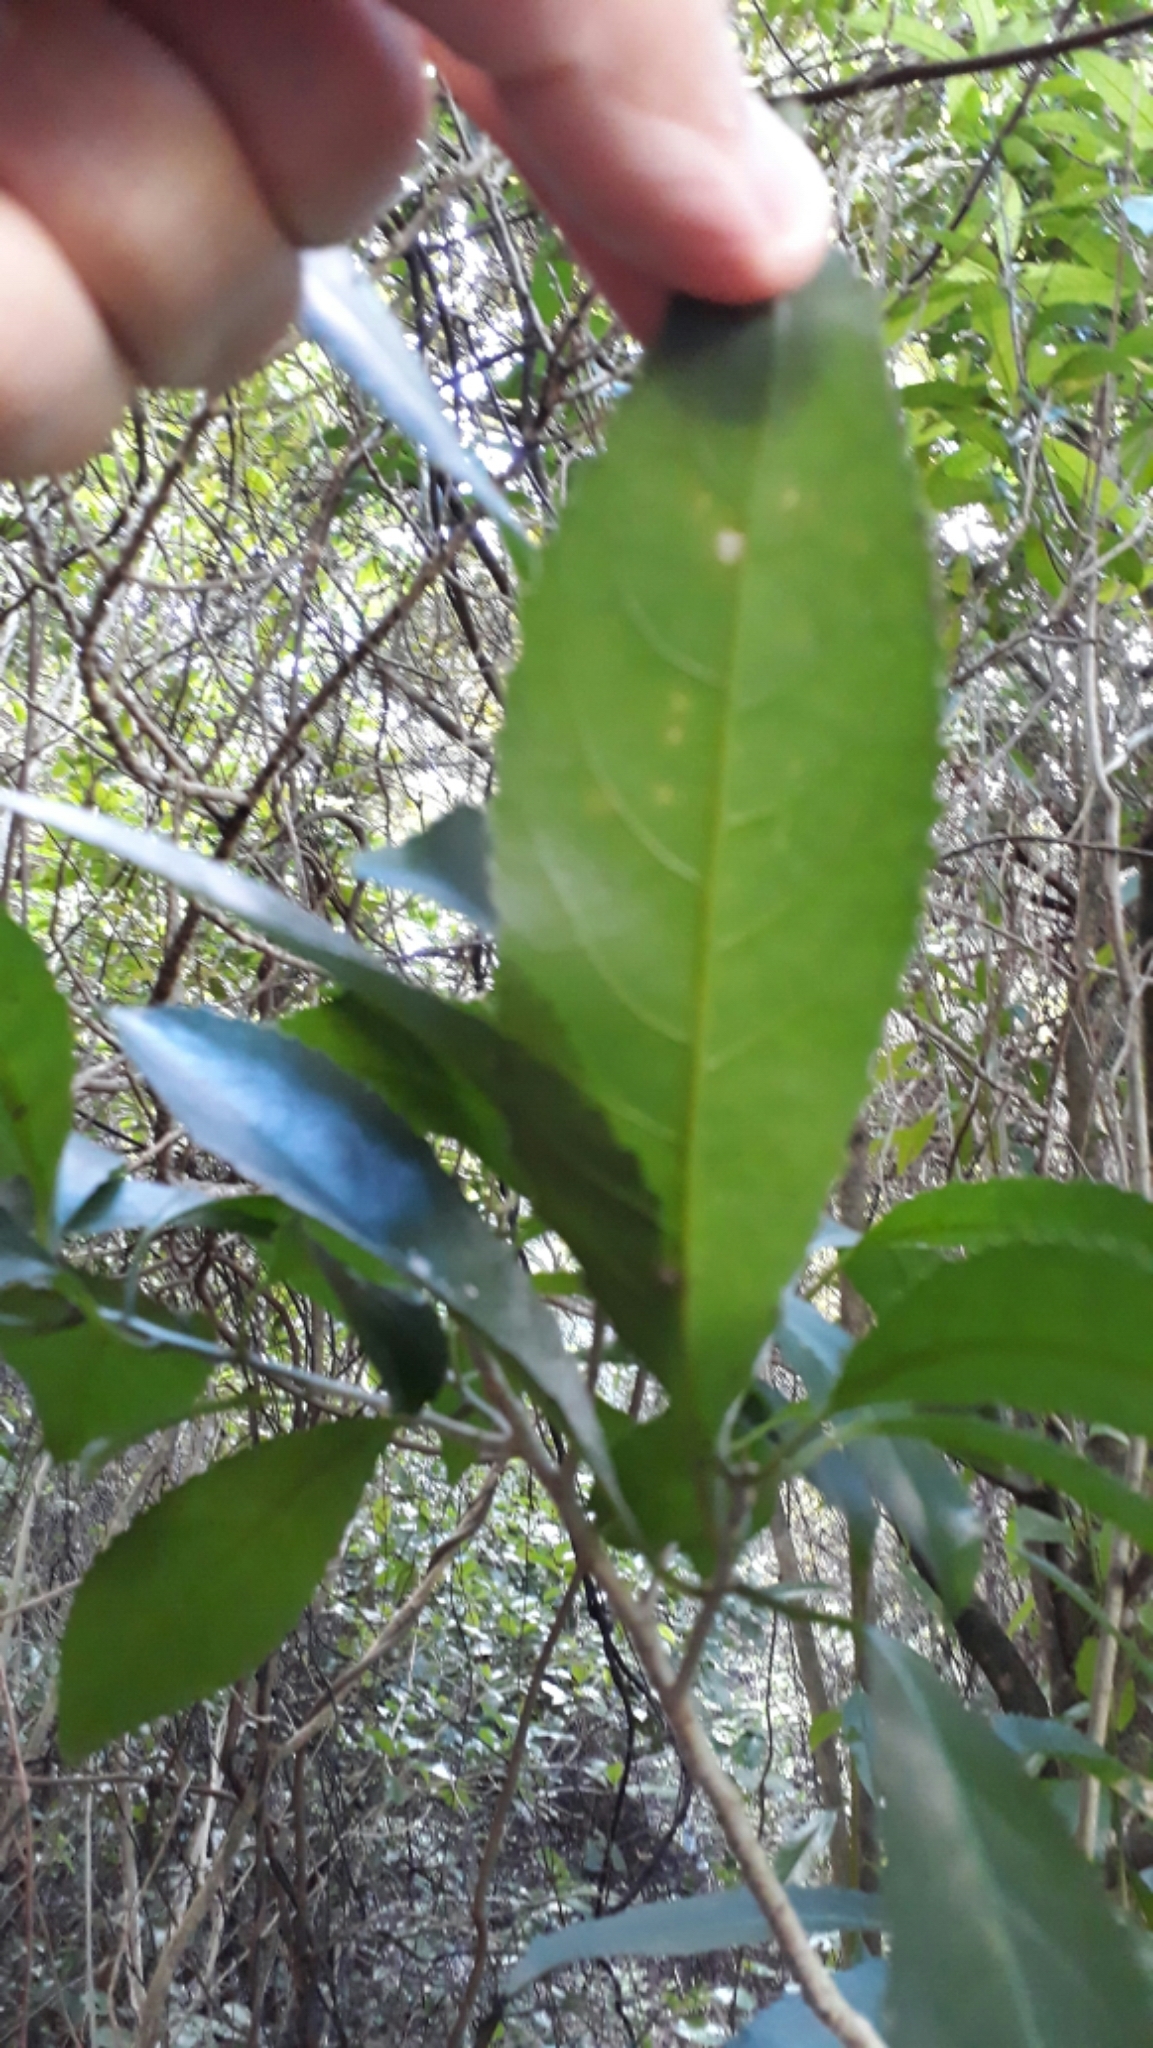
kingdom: Plantae
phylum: Tracheophyta
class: Magnoliopsida
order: Malpighiales
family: Violaceae
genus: Melicytus
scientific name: Melicytus ramiflorus
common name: Mahoe
